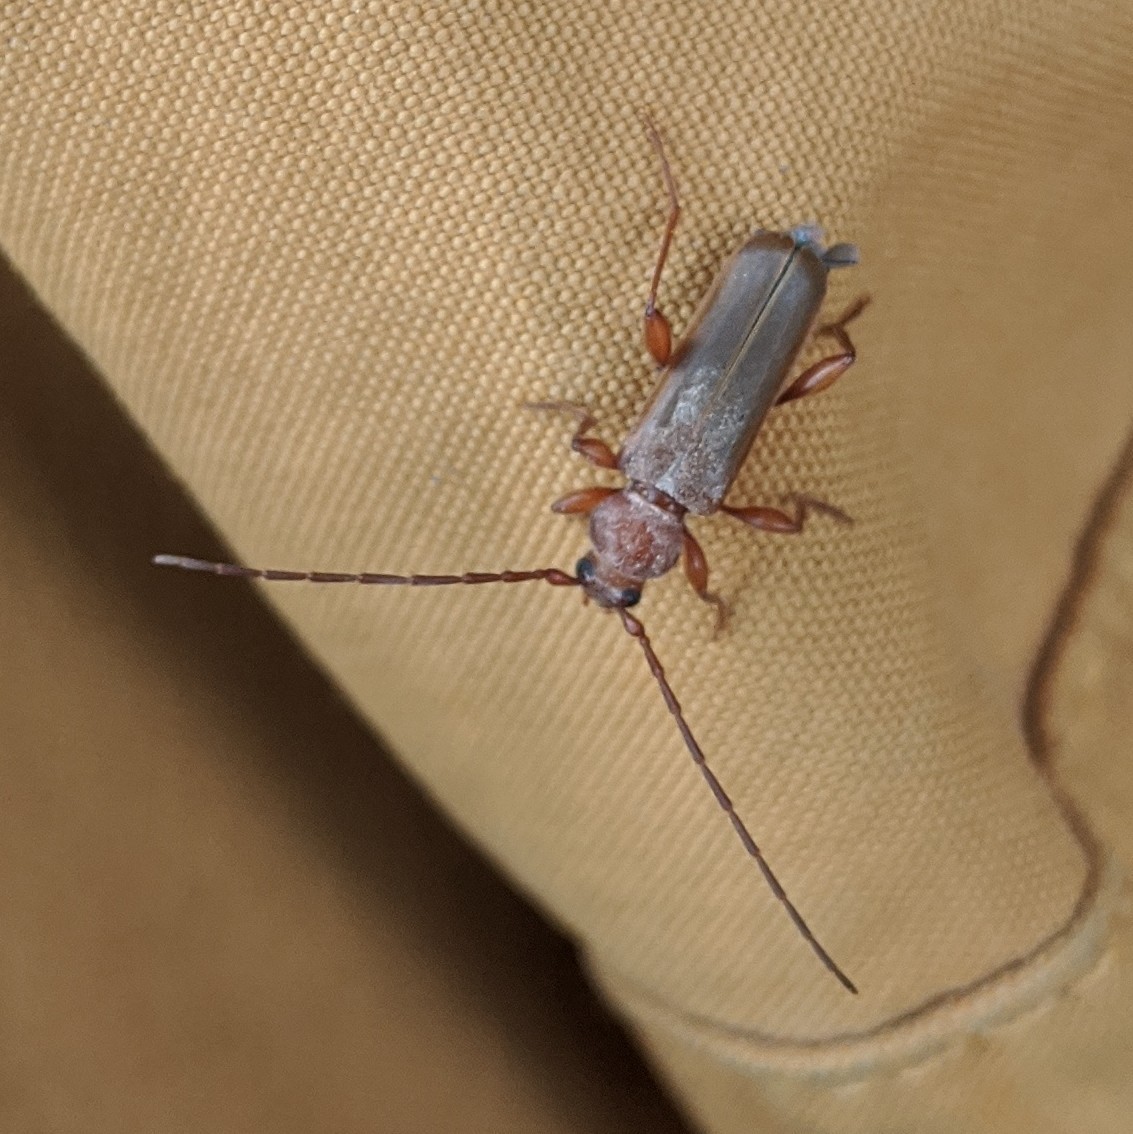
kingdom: Animalia
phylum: Arthropoda
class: Insecta
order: Coleoptera
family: Cerambycidae
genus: Phymatodes
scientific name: Phymatodes testaceus
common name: Long-horned beetle
